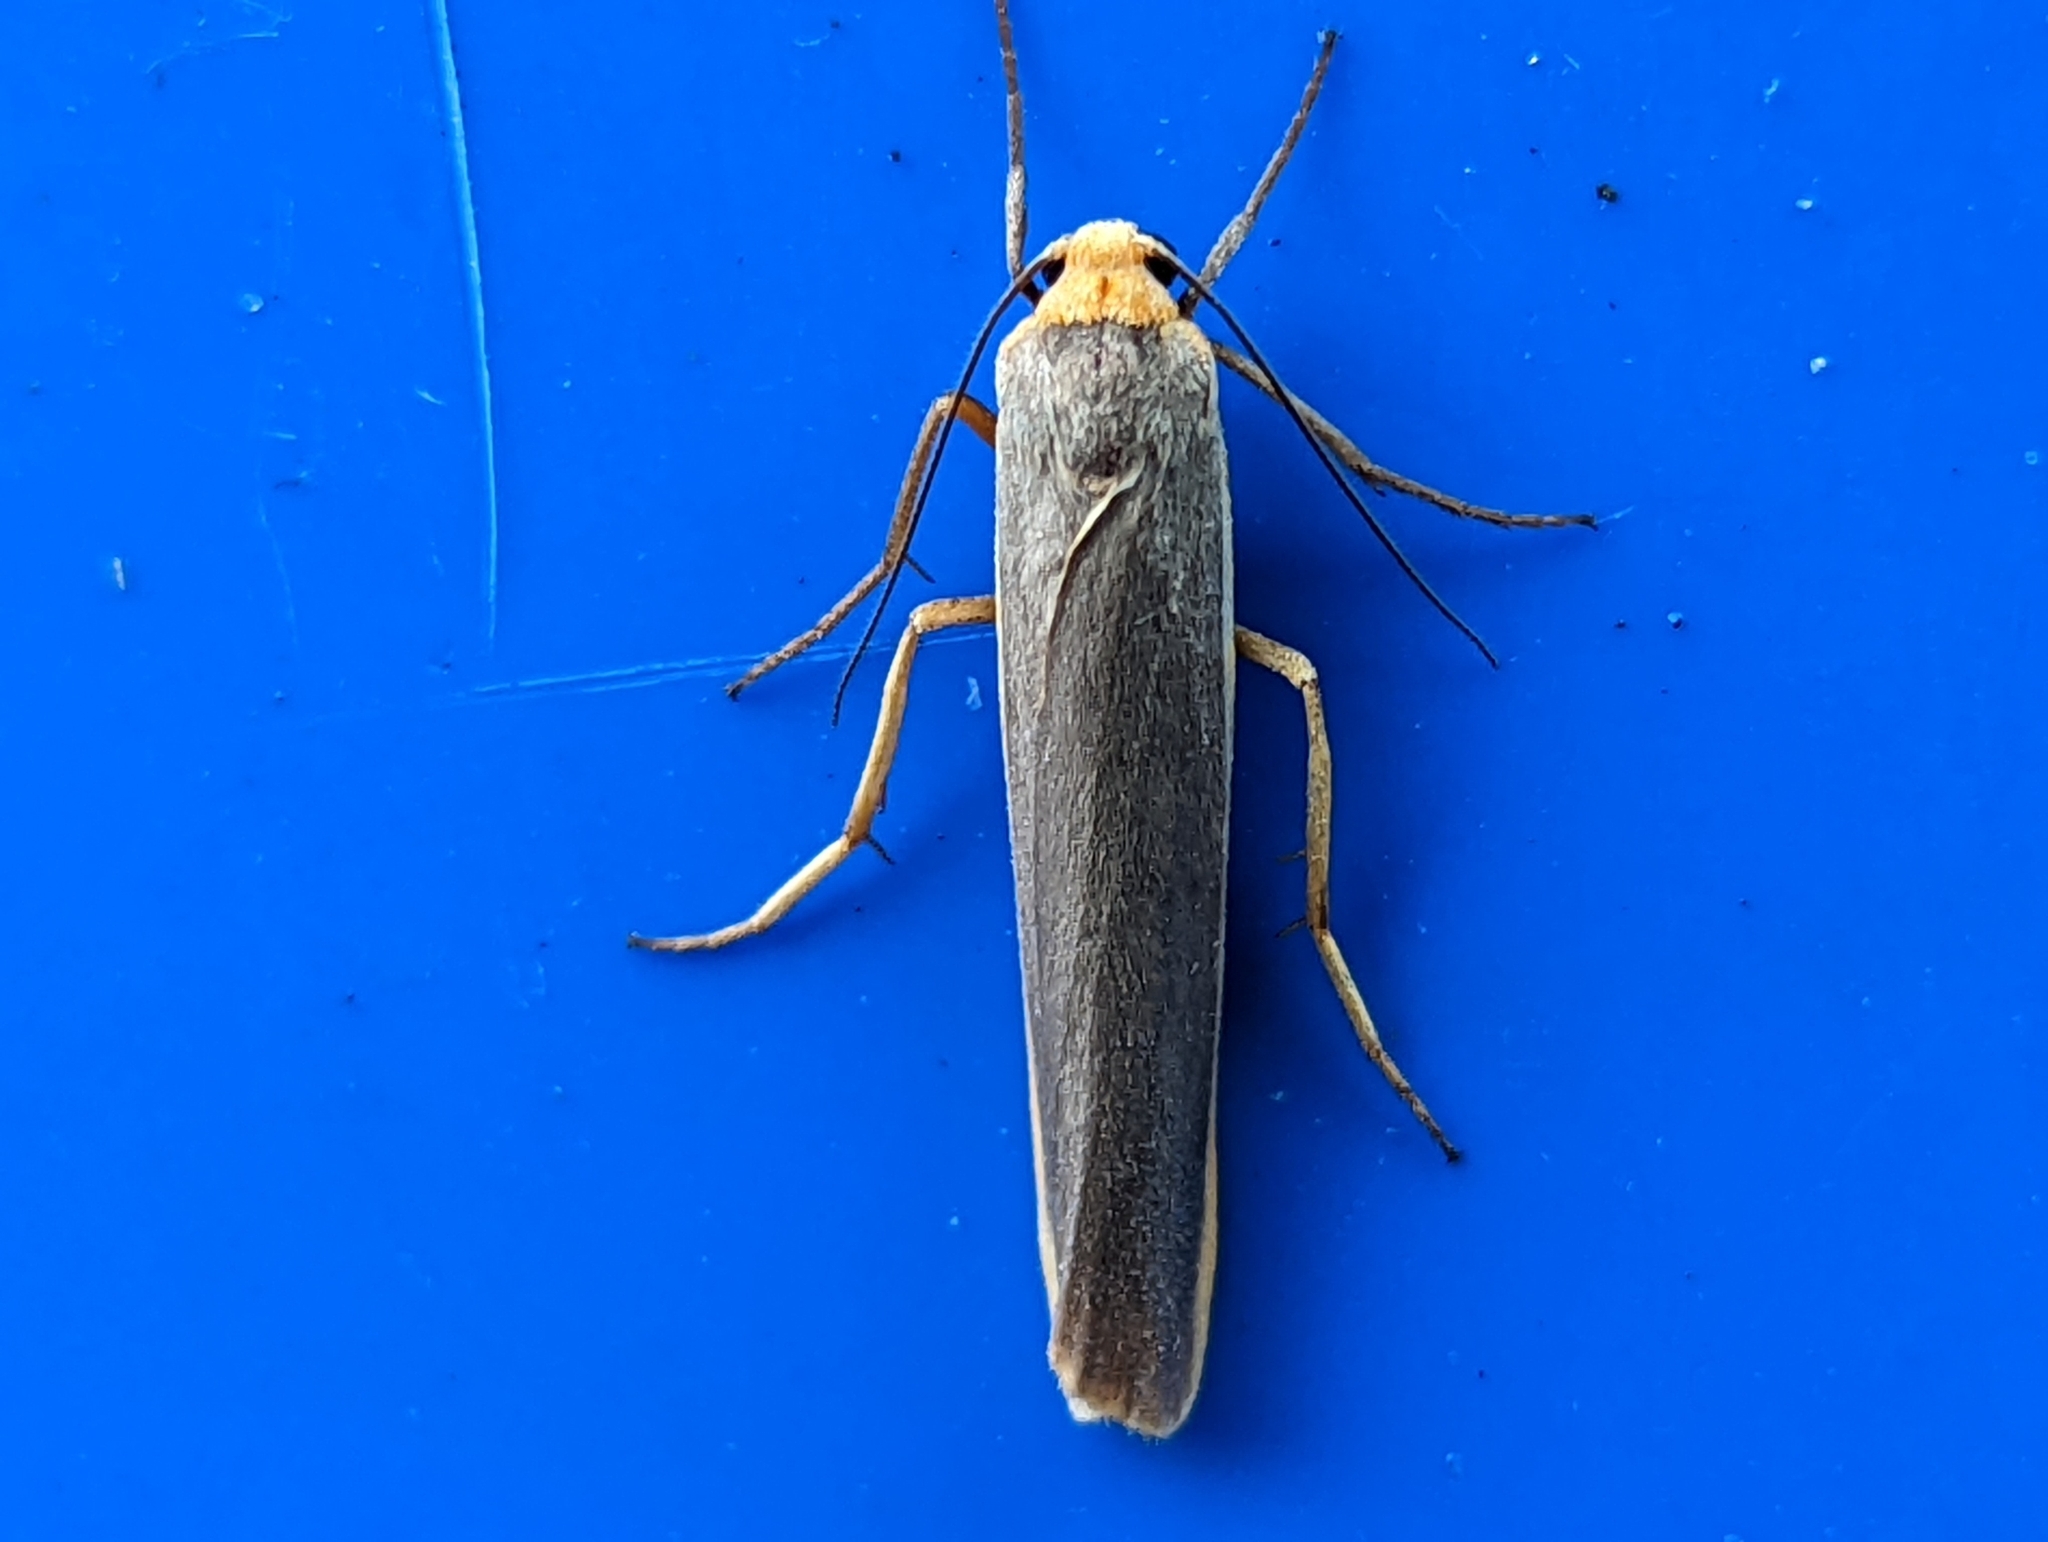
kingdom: Animalia
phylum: Arthropoda
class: Insecta
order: Lepidoptera
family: Erebidae
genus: Manulea
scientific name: Manulea complana
